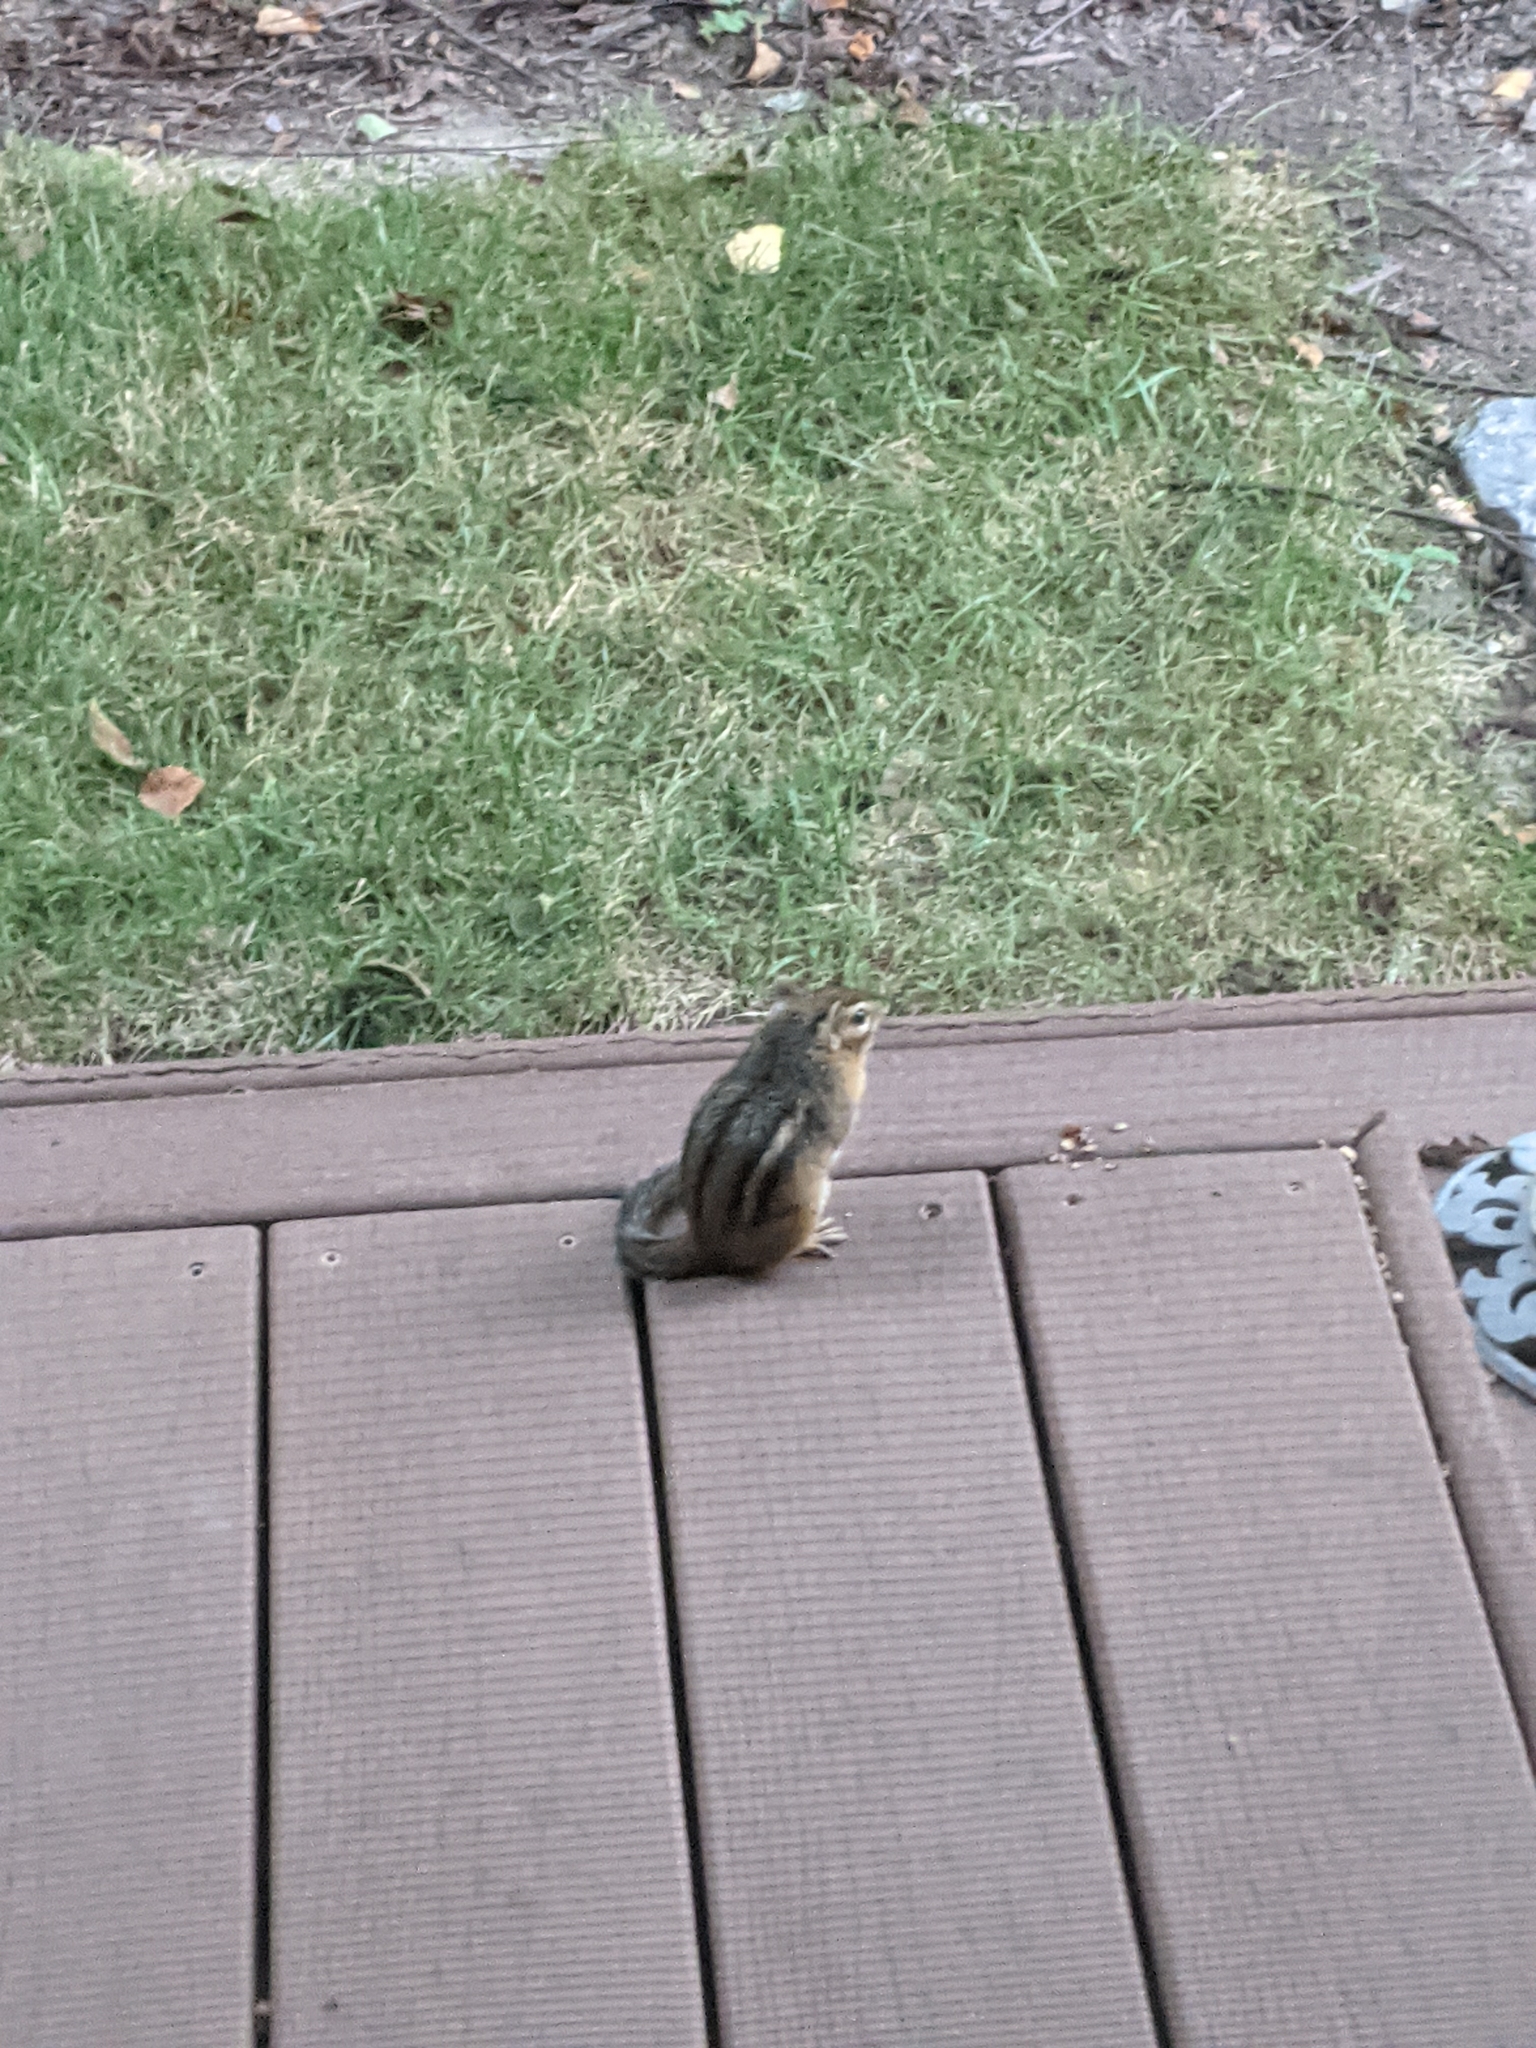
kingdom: Animalia
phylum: Chordata
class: Mammalia
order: Rodentia
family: Sciuridae
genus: Tamias
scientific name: Tamias striatus
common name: Eastern chipmunk
